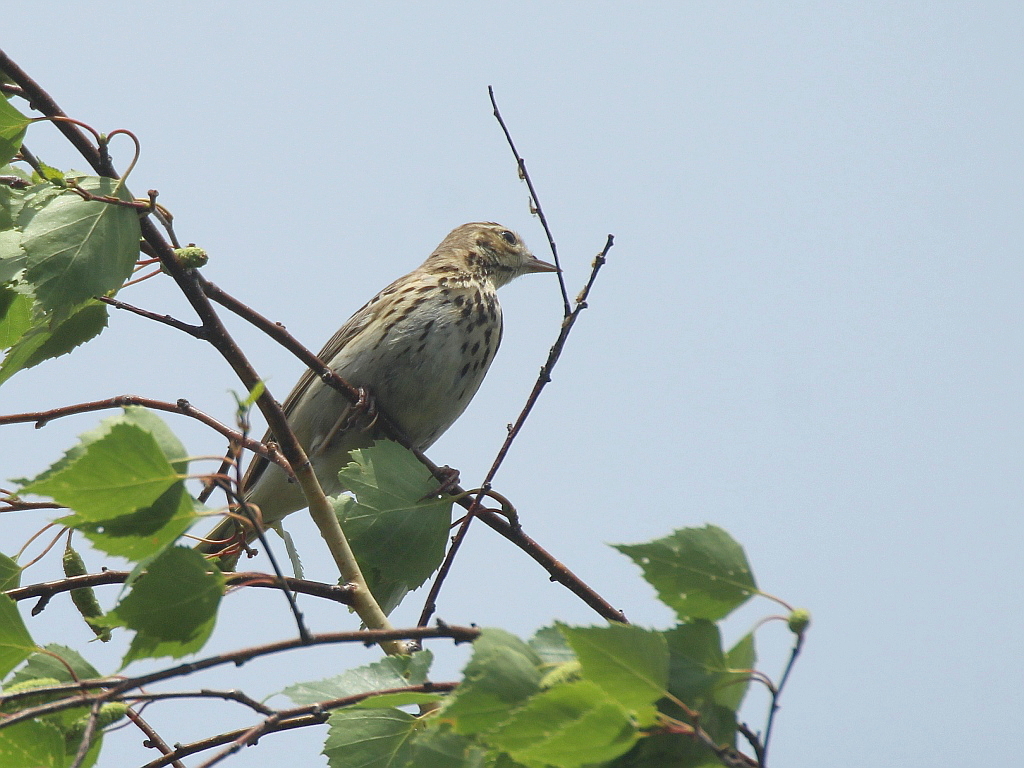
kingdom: Animalia
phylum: Chordata
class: Aves
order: Passeriformes
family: Motacillidae
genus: Anthus
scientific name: Anthus trivialis
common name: Tree pipit
